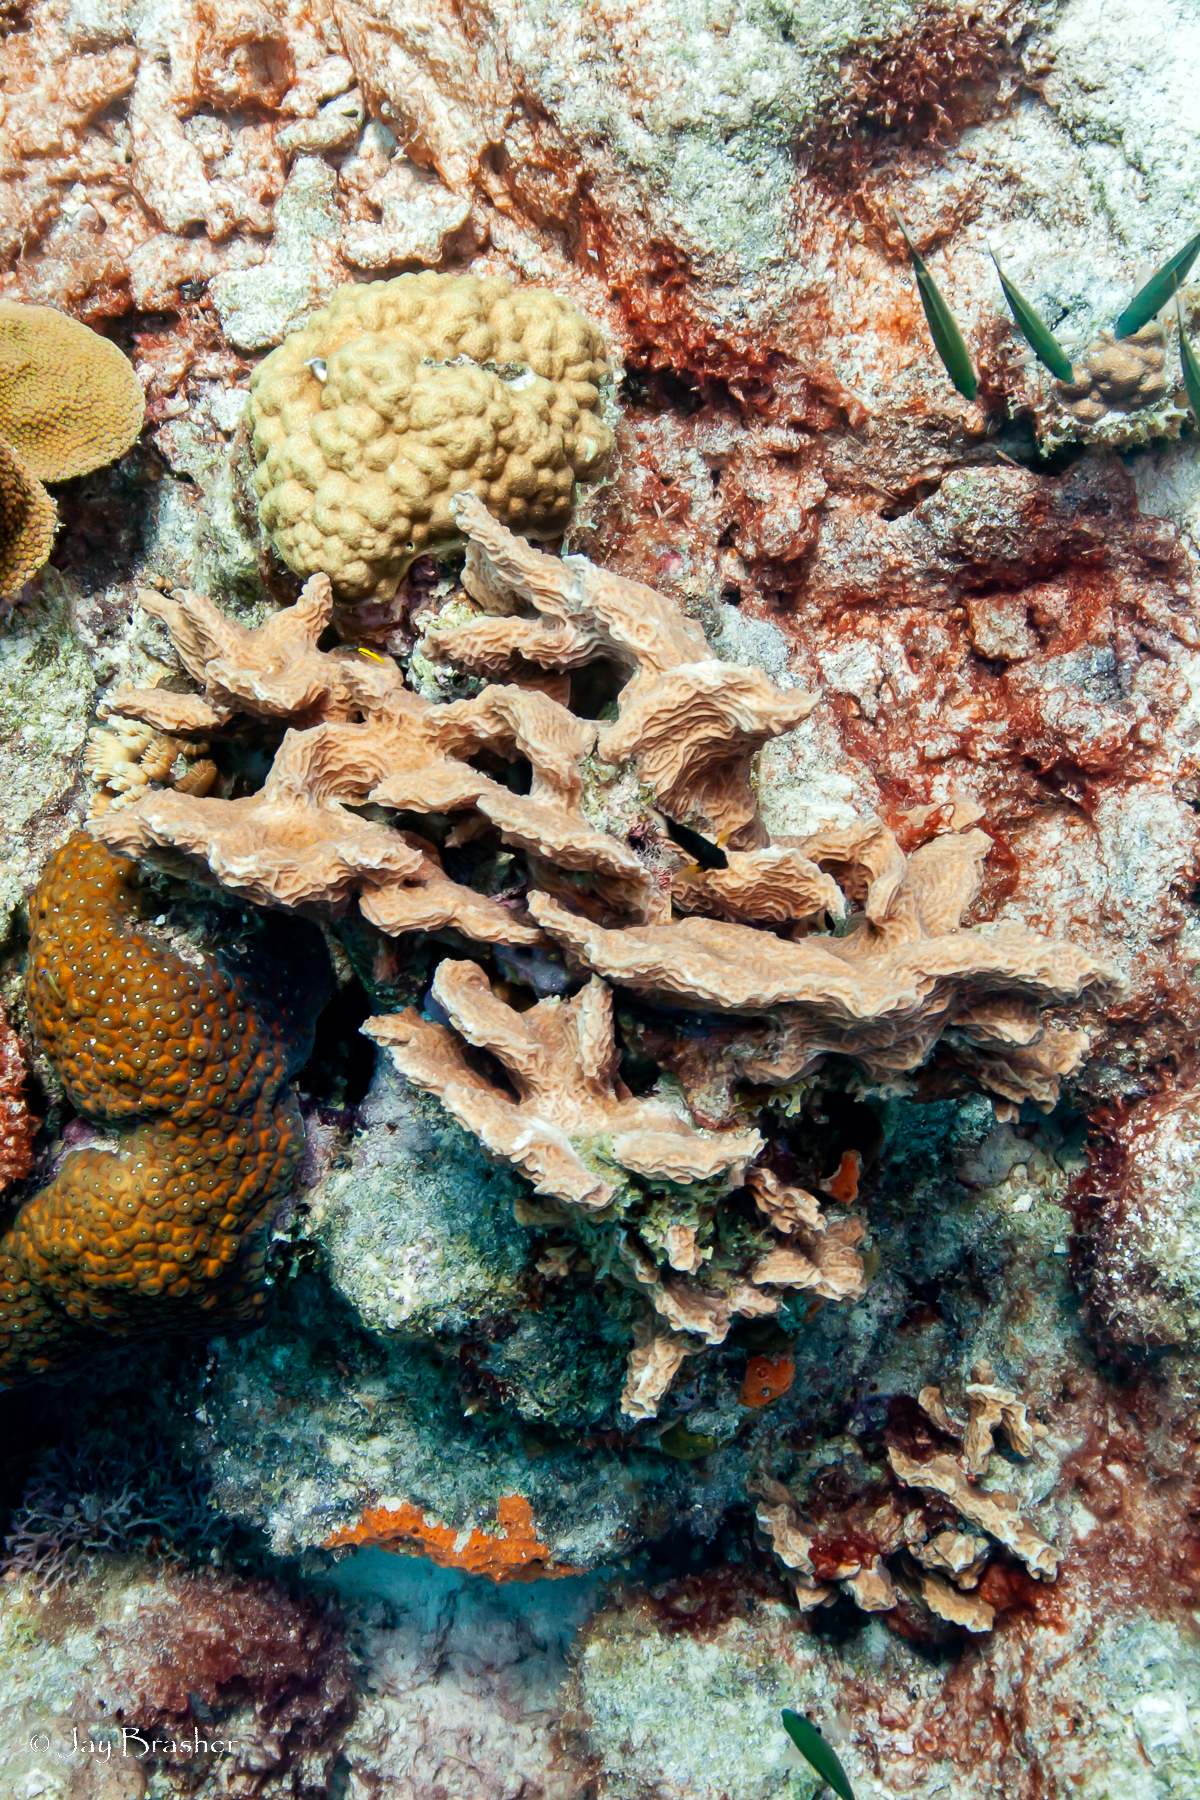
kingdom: Animalia
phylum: Cnidaria
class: Anthozoa
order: Scleractinia
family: Montastraeidae
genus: Montastraea
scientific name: Montastraea cavernosa
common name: Great star coral
